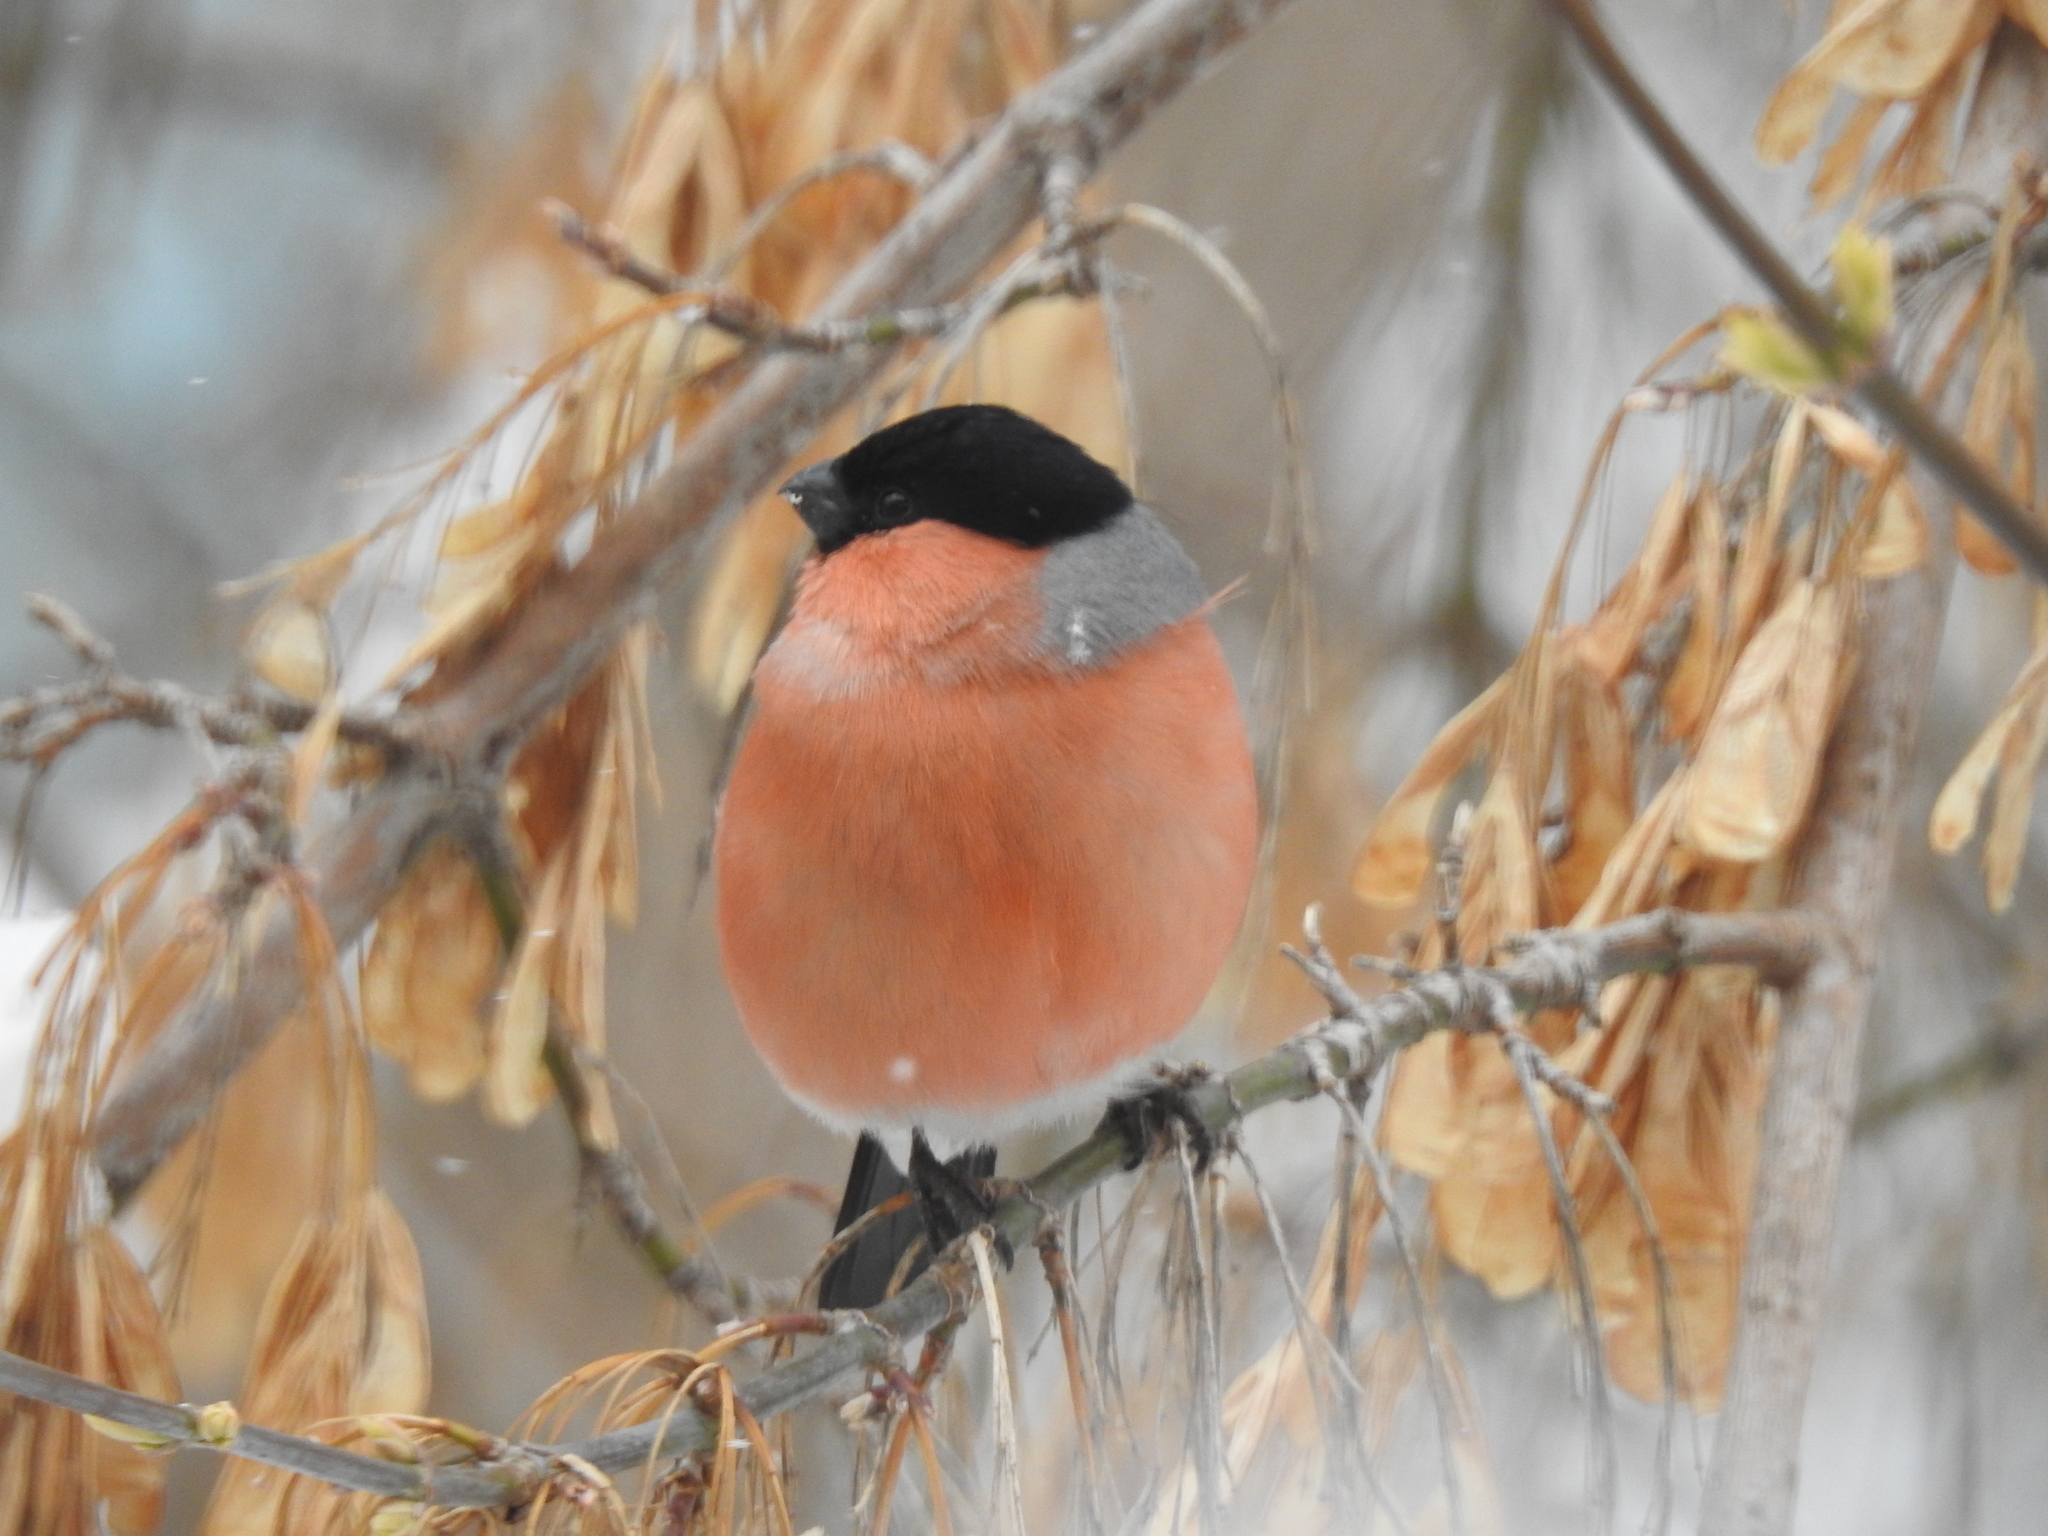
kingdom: Animalia
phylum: Chordata
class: Aves
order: Passeriformes
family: Fringillidae
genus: Pyrrhula
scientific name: Pyrrhula pyrrhula
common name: Eurasian bullfinch
